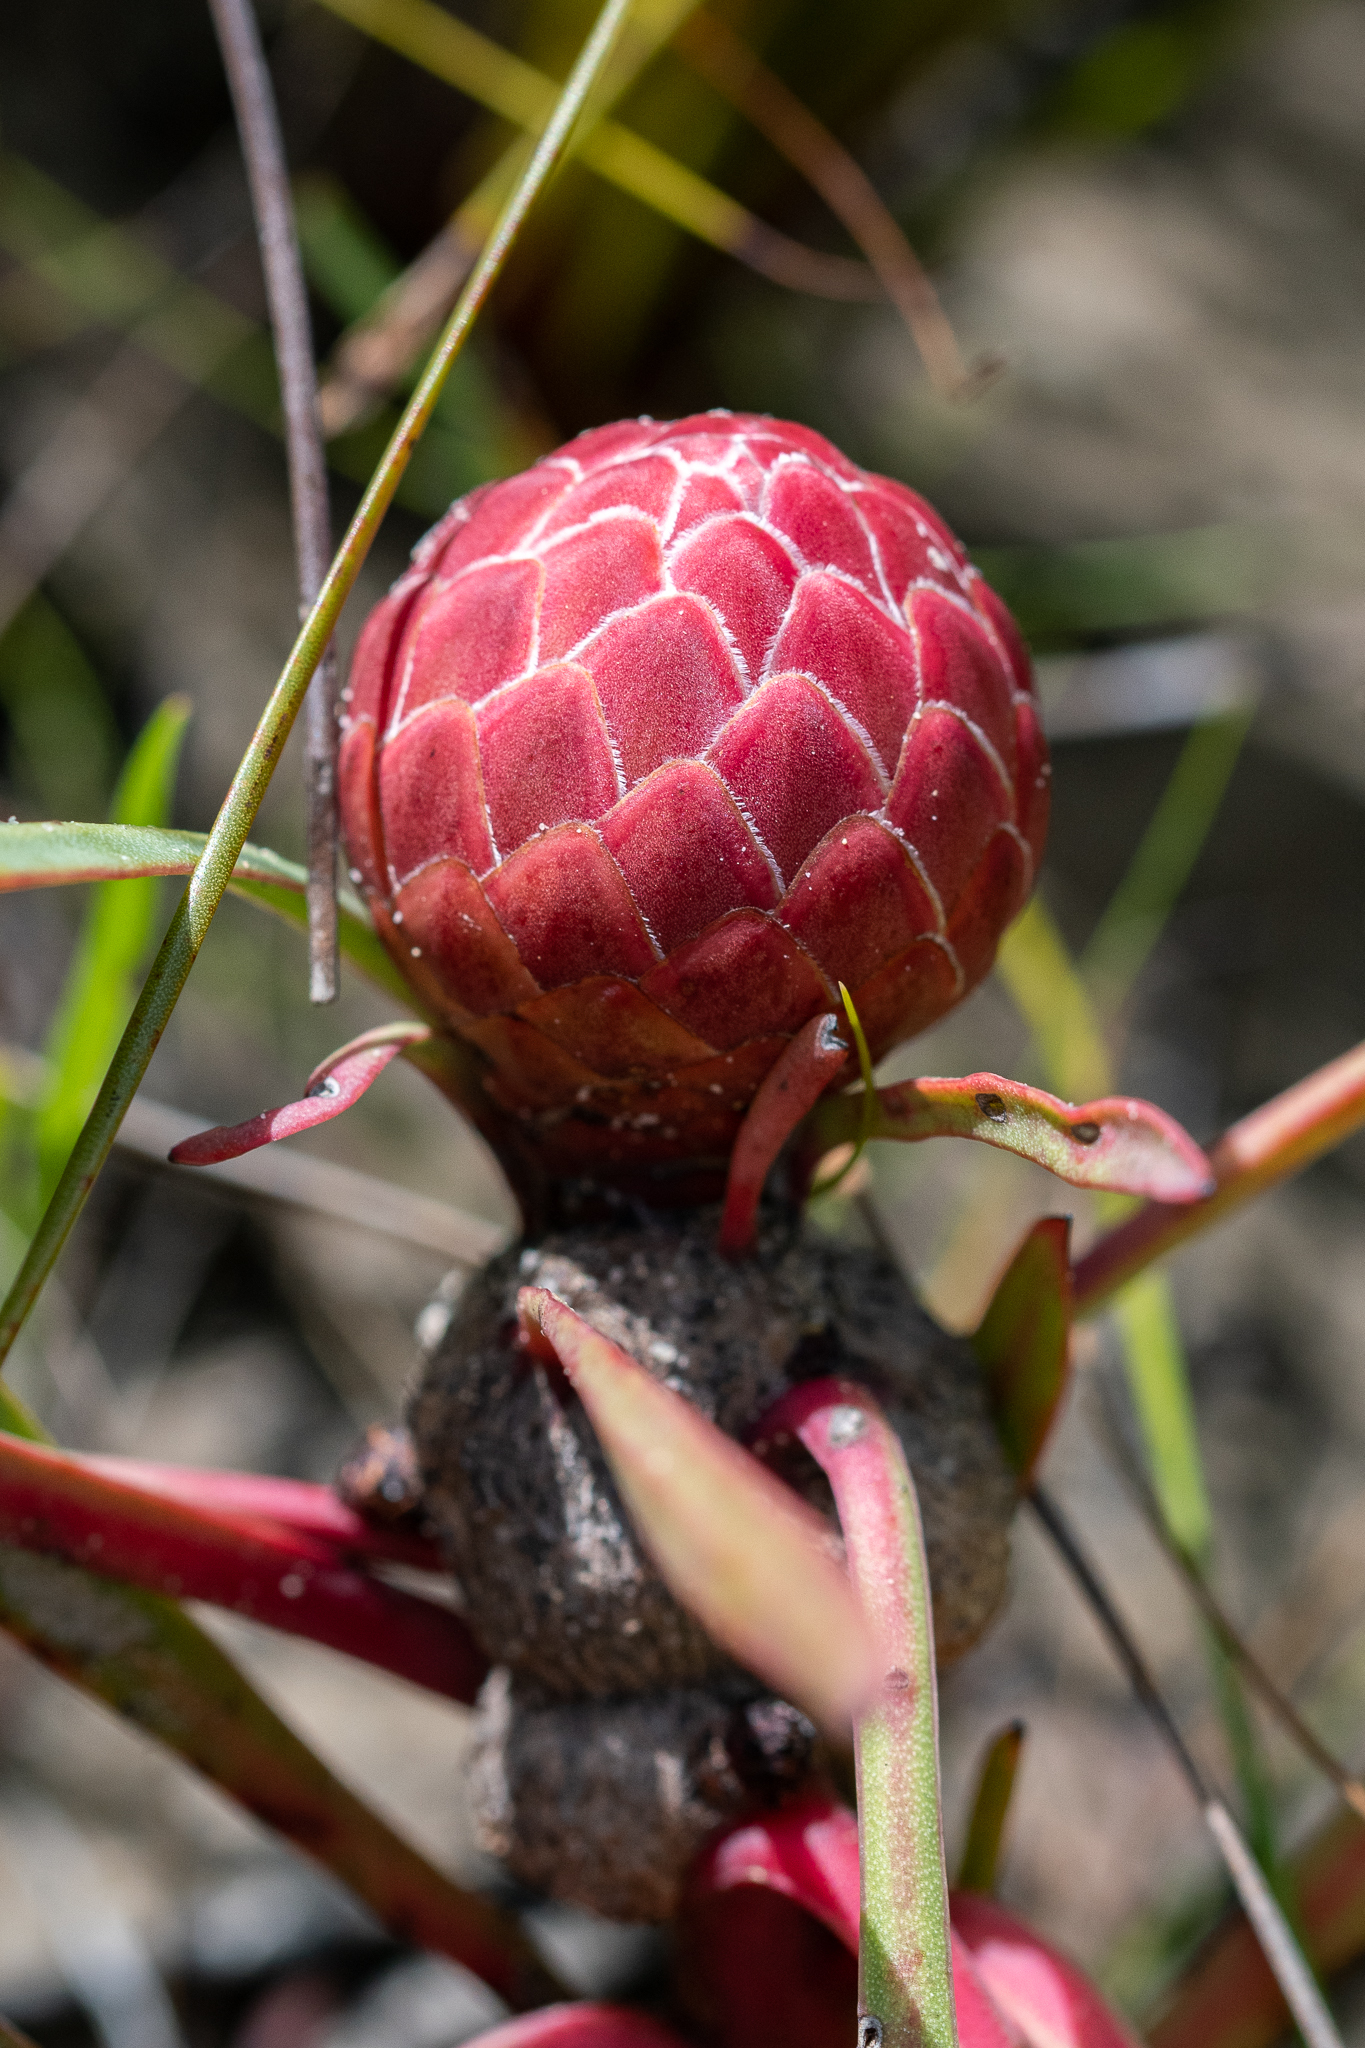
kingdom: Plantae
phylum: Tracheophyta
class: Magnoliopsida
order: Proteales
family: Proteaceae
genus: Protea
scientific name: Protea acaulos
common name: Common ground sugarbush
